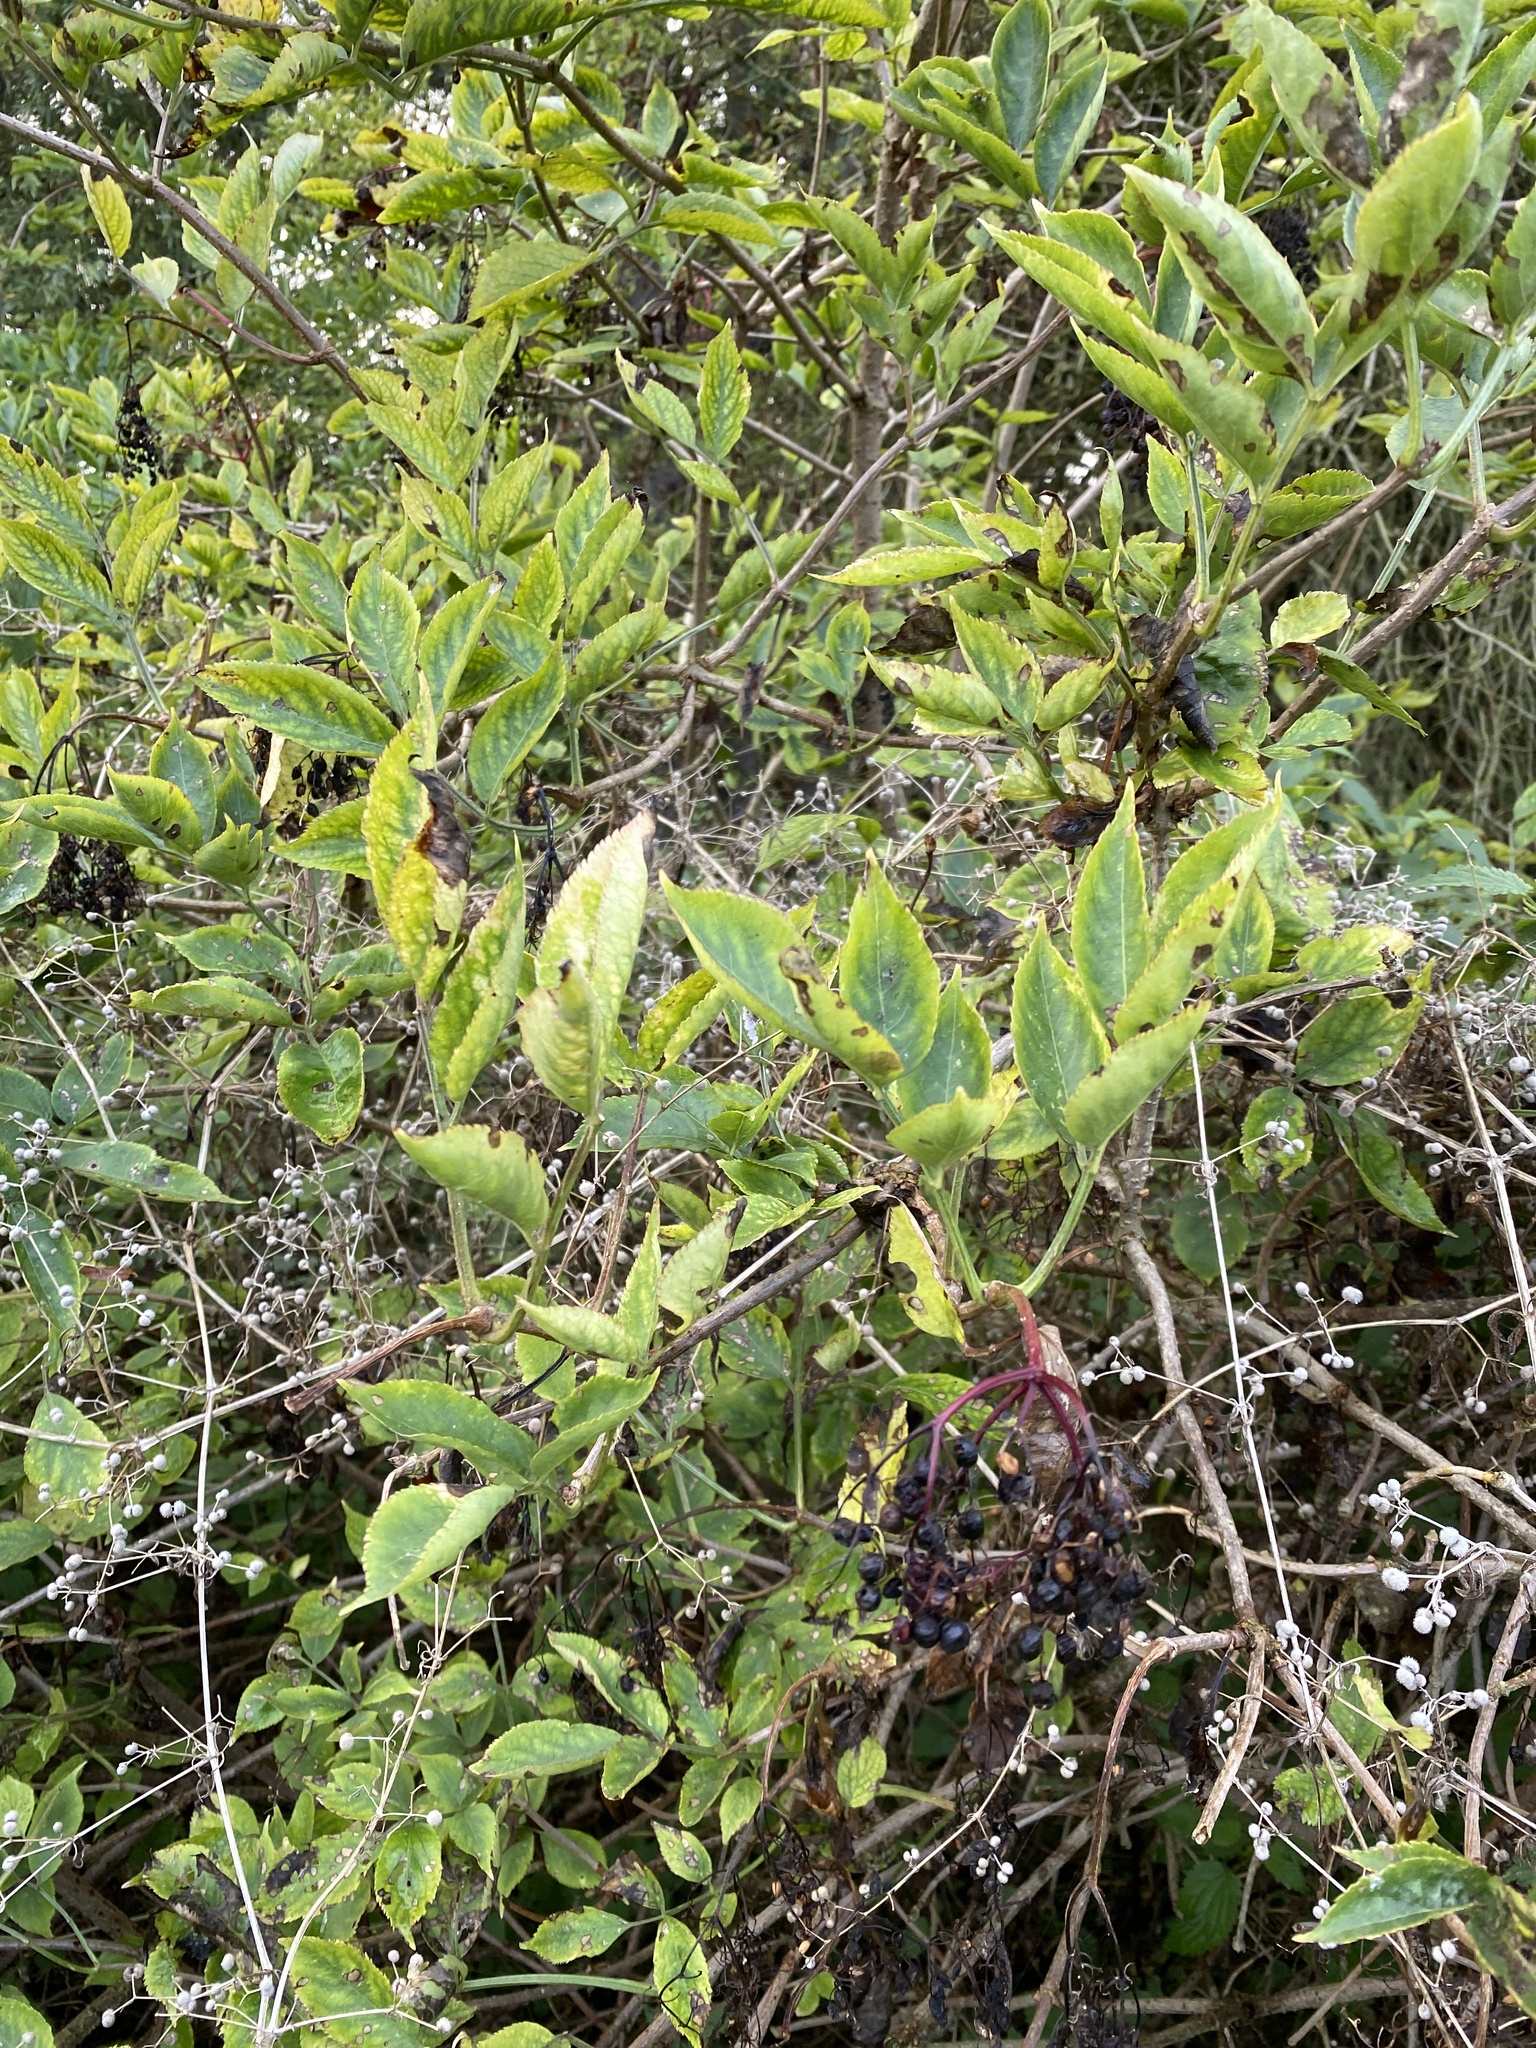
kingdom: Plantae
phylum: Tracheophyta
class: Magnoliopsida
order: Dipsacales
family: Viburnaceae
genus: Sambucus
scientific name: Sambucus nigra
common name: Elder
